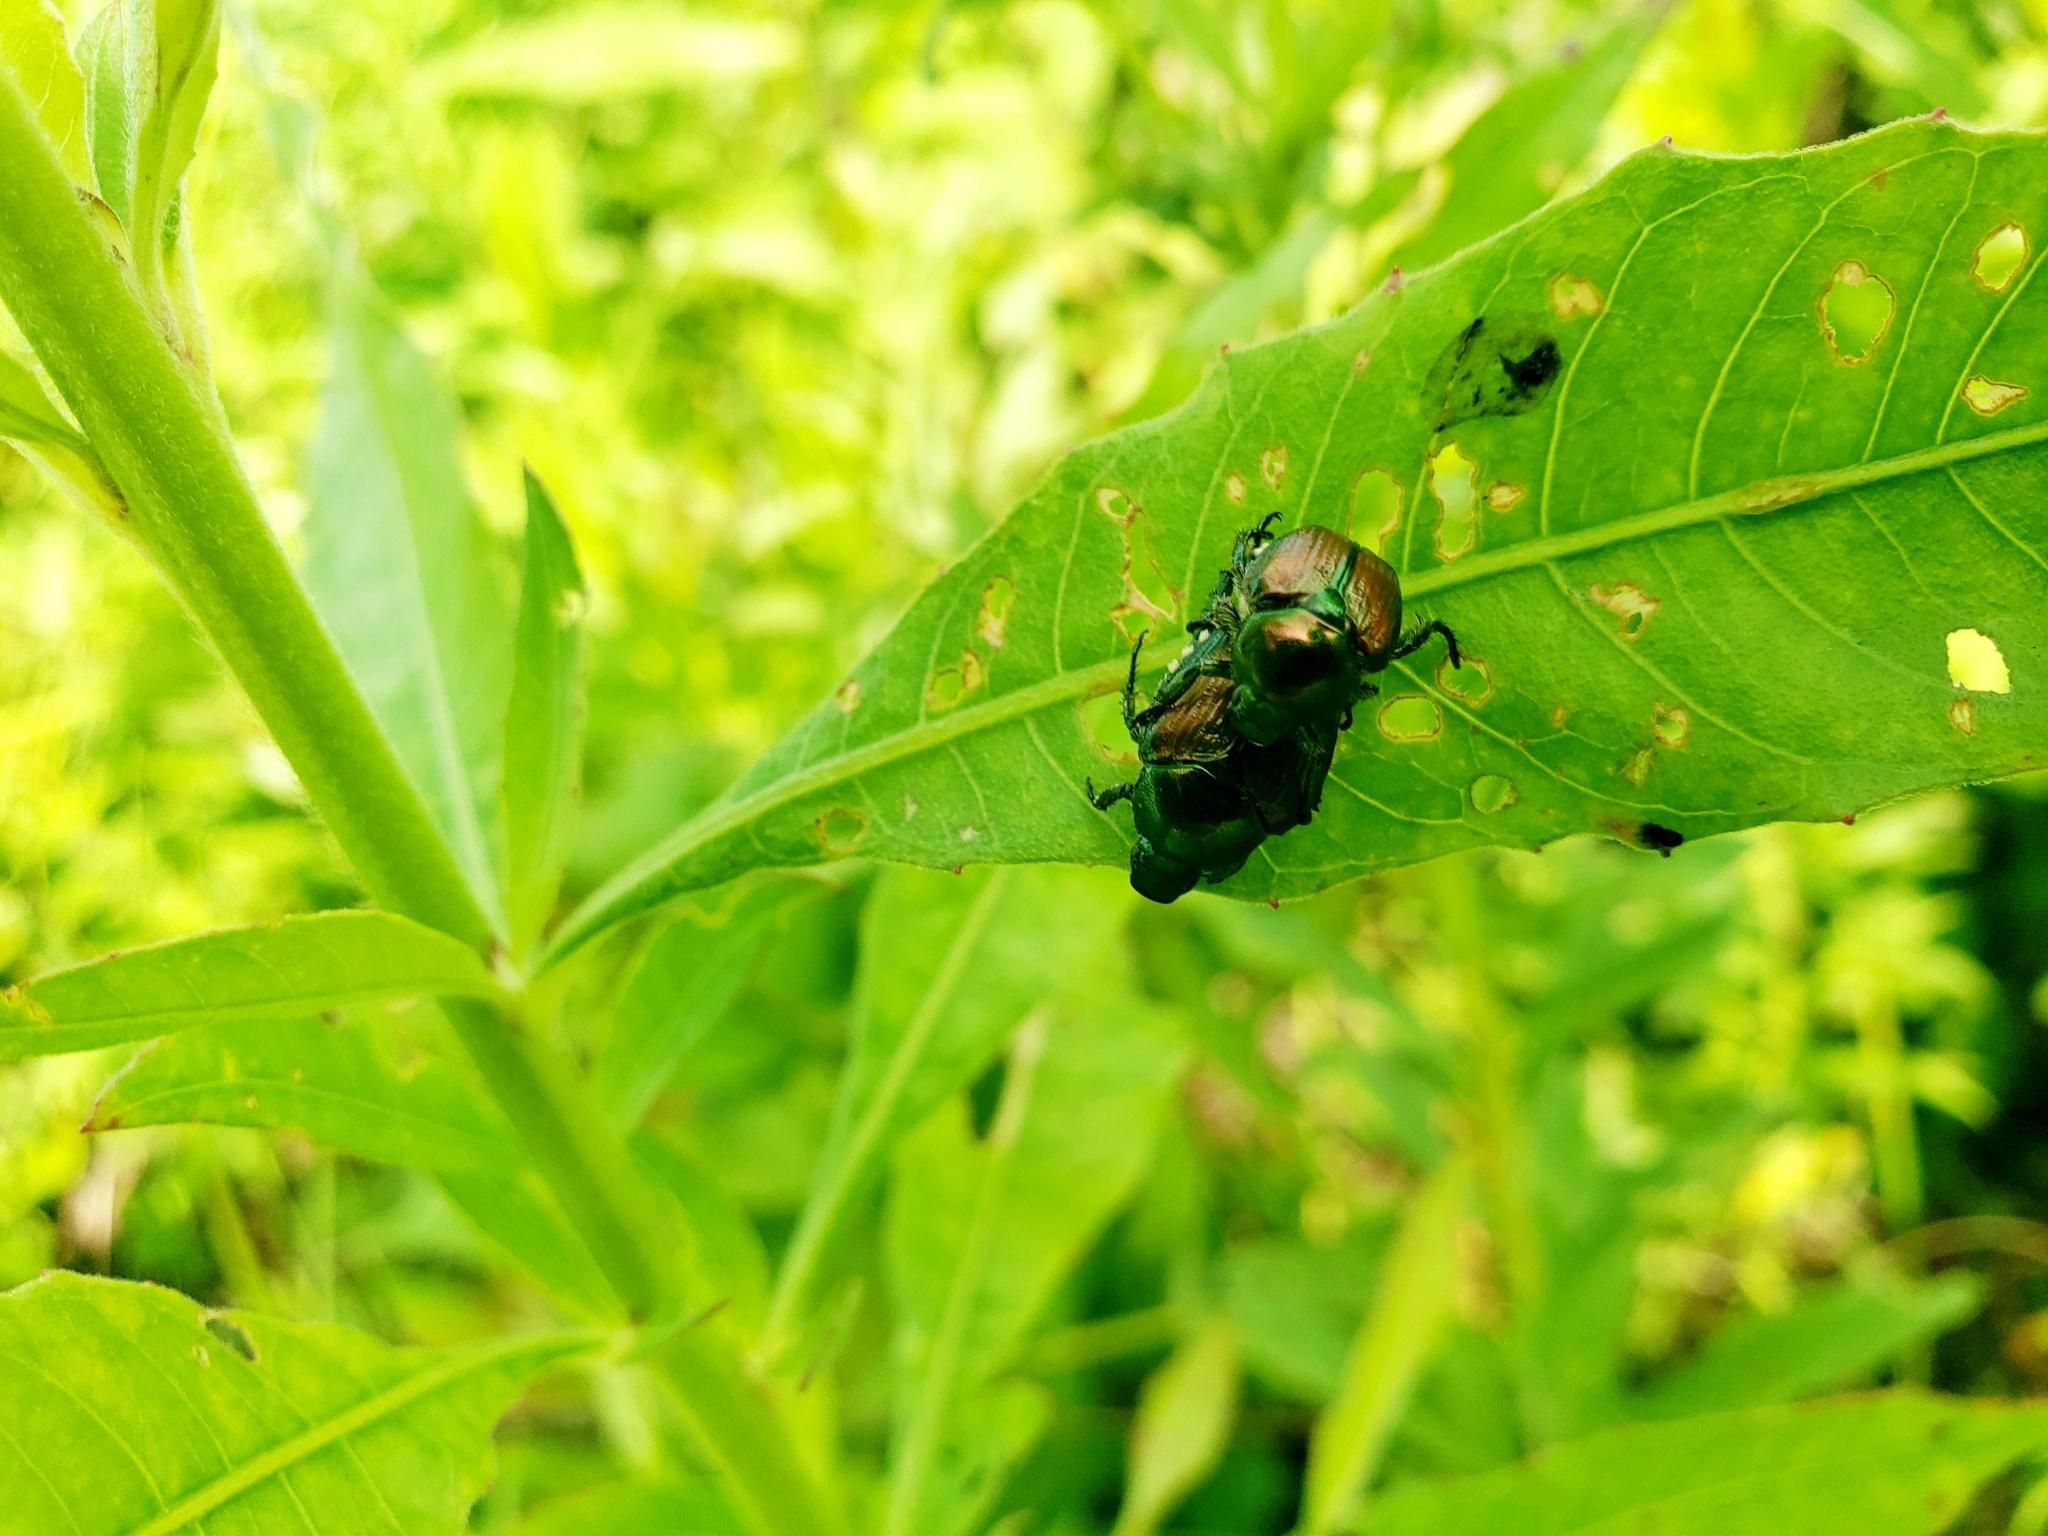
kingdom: Animalia
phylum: Arthropoda
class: Insecta
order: Coleoptera
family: Scarabaeidae
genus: Popillia
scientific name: Popillia japonica
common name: Japanese beetle
